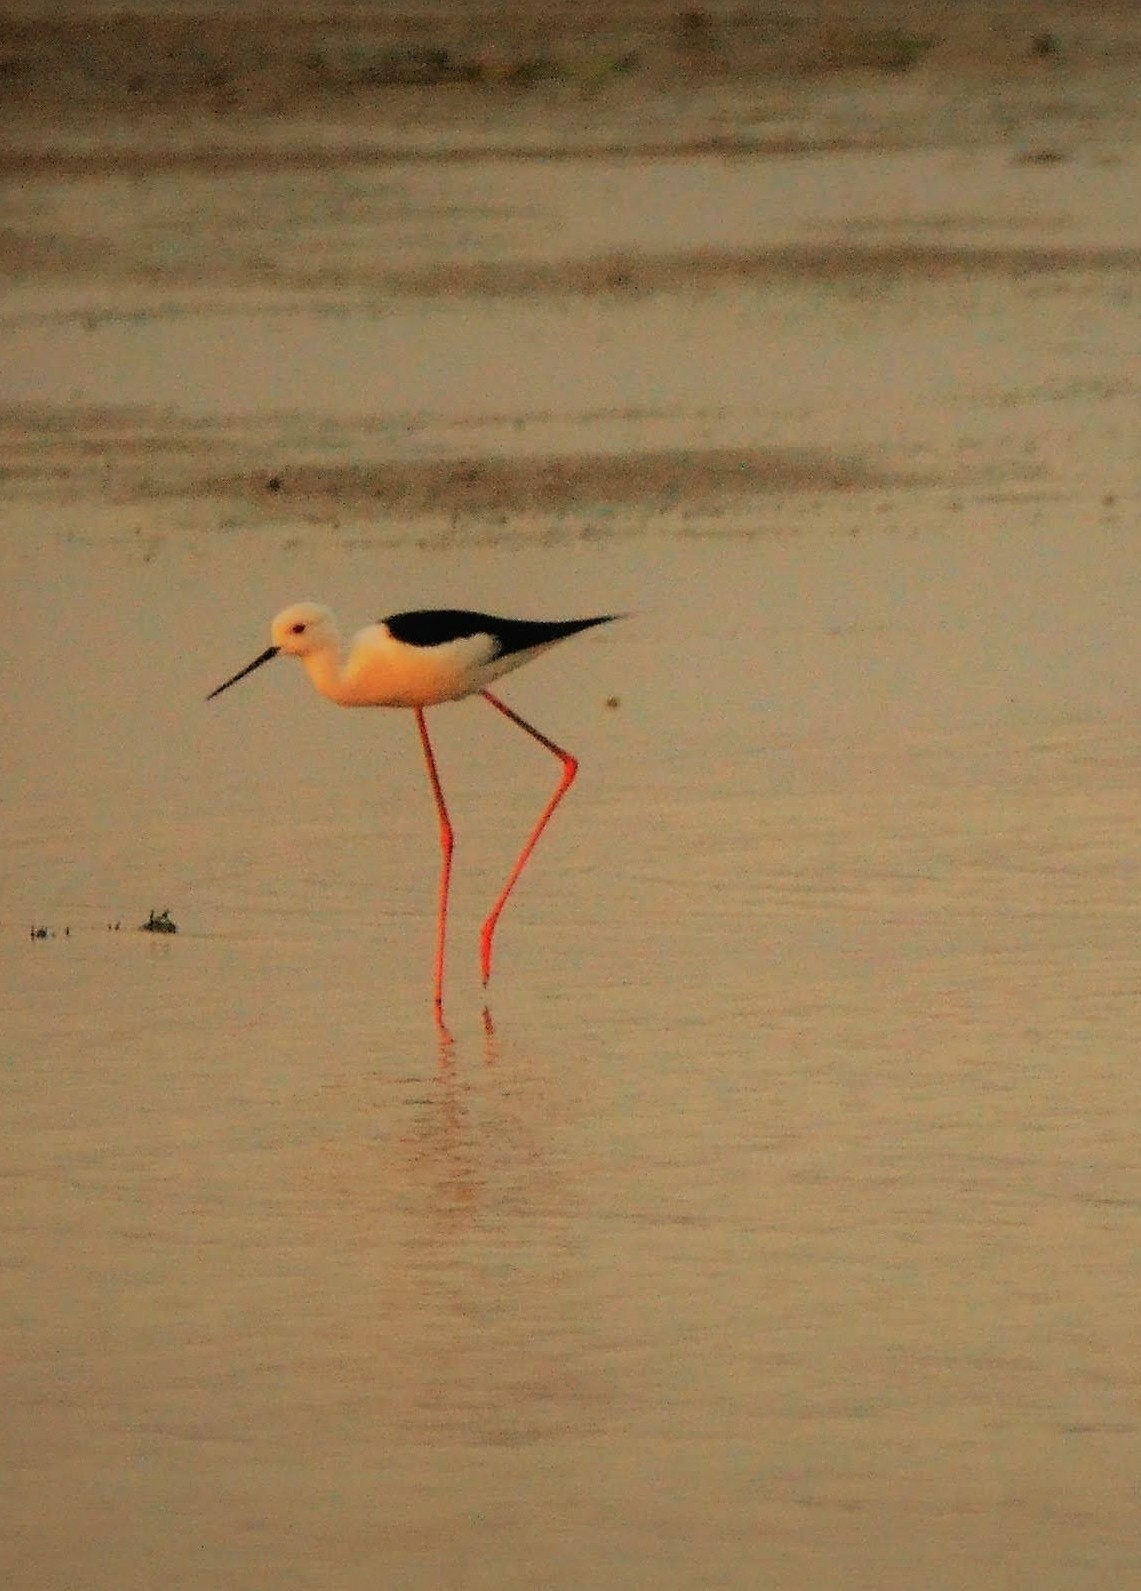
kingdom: Animalia
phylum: Chordata
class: Aves
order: Charadriiformes
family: Recurvirostridae
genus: Himantopus
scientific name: Himantopus himantopus
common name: Black-winged stilt
